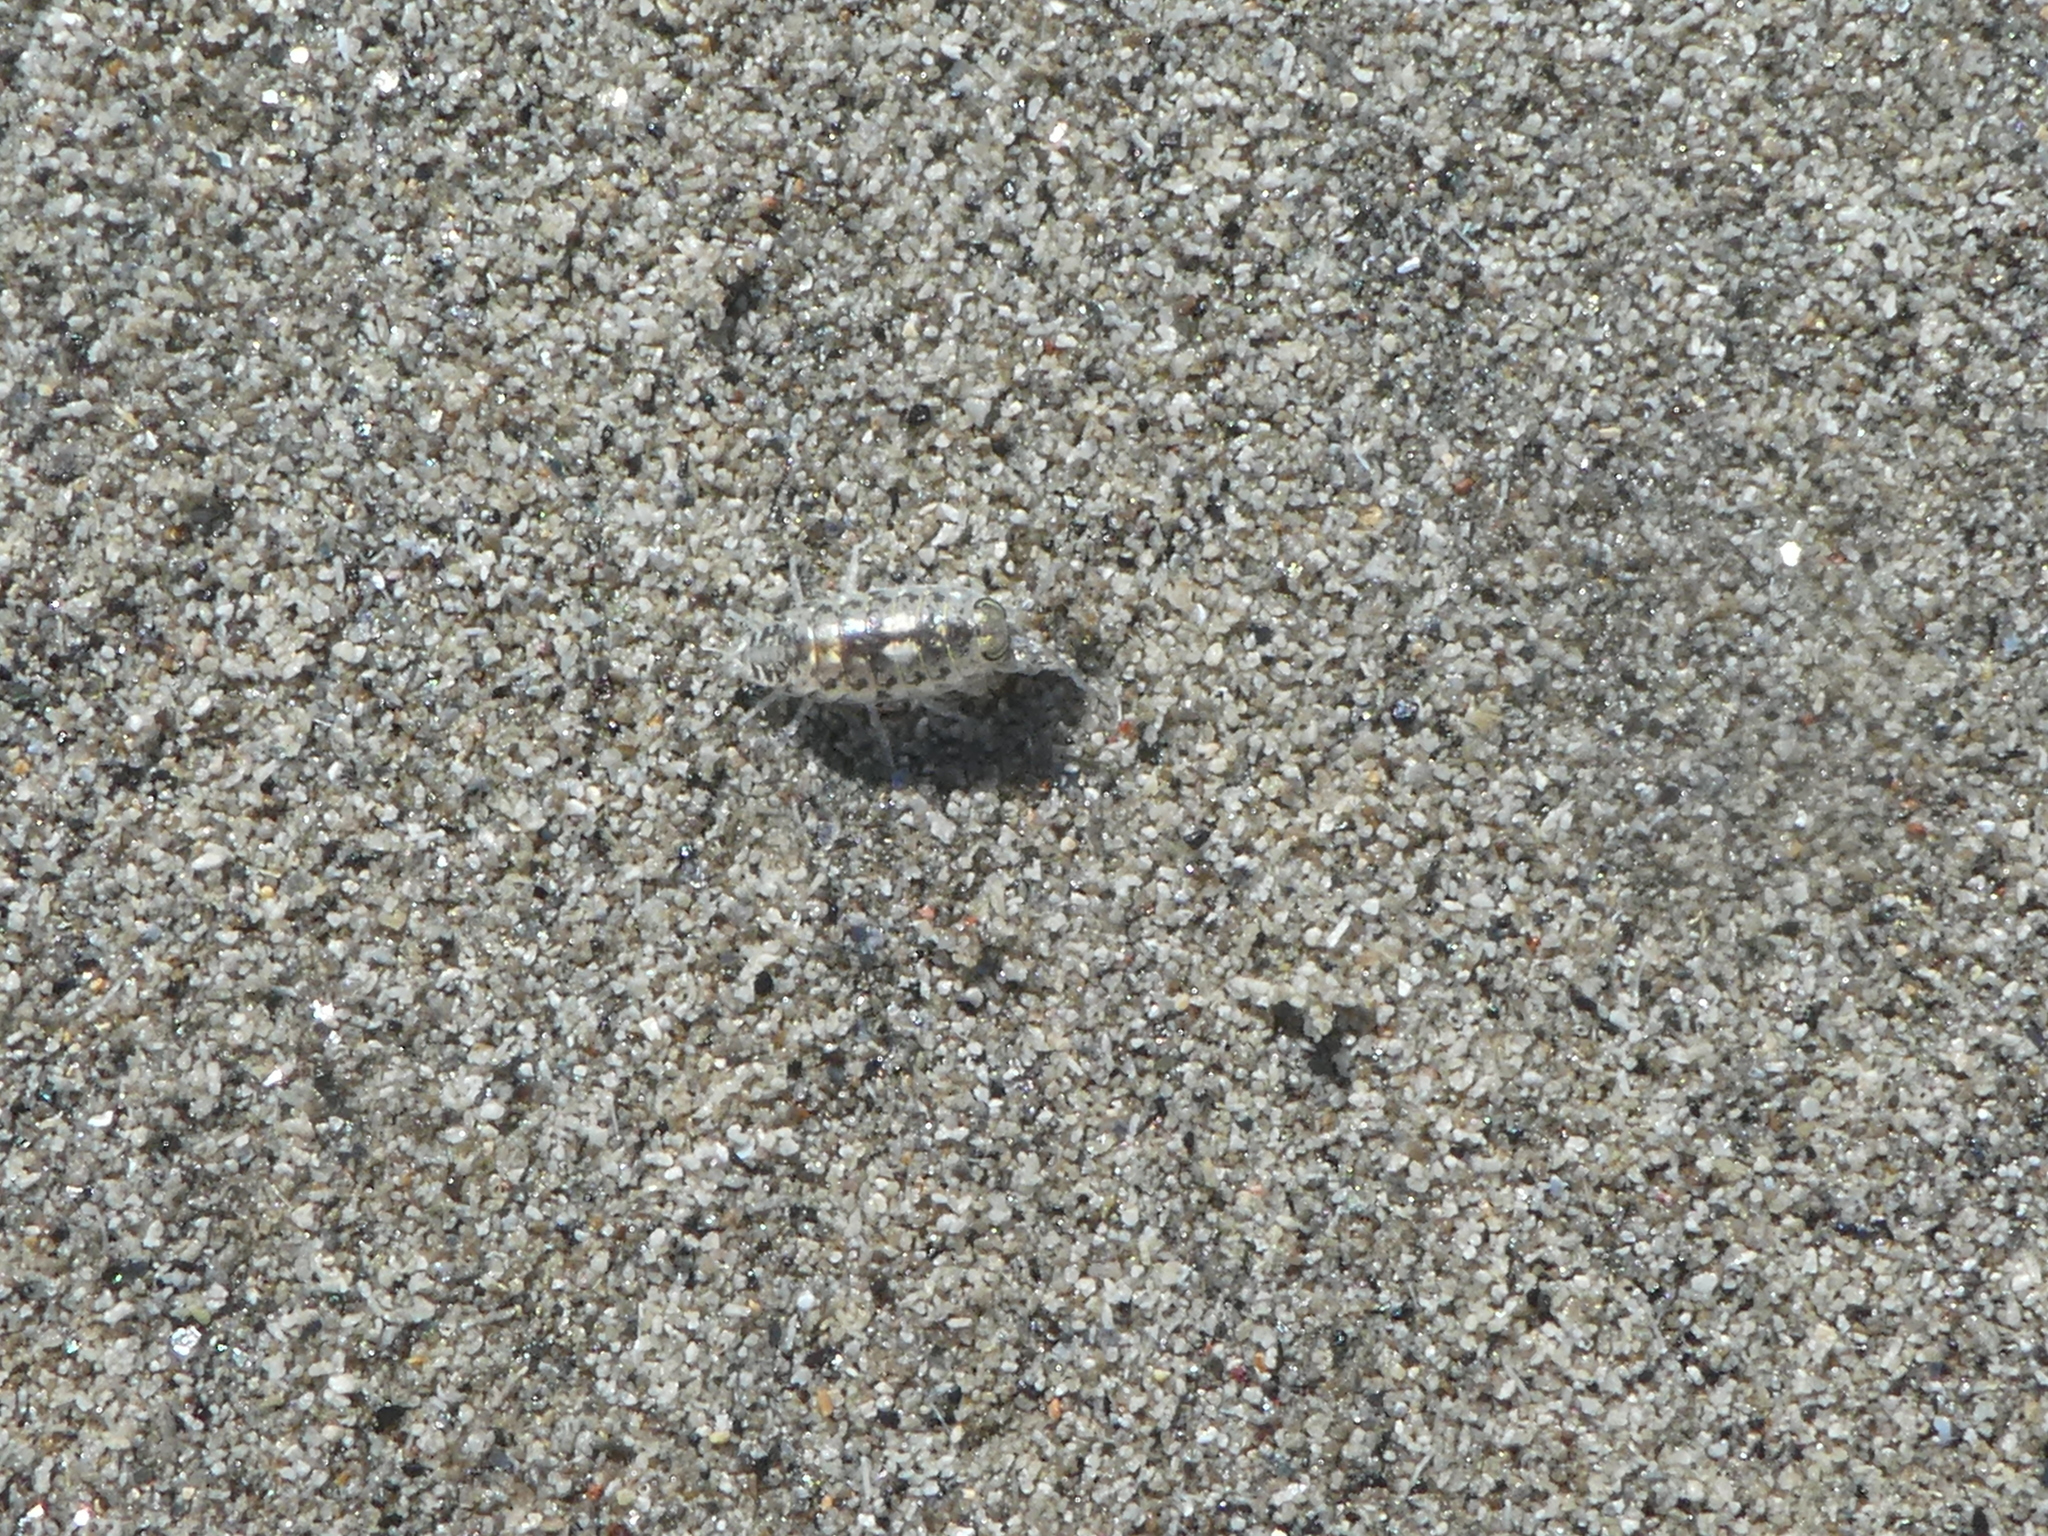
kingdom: Animalia
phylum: Arthropoda
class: Malacostraca
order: Isopoda
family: Scyphacidae
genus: Scyphax
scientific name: Scyphax ornatus
